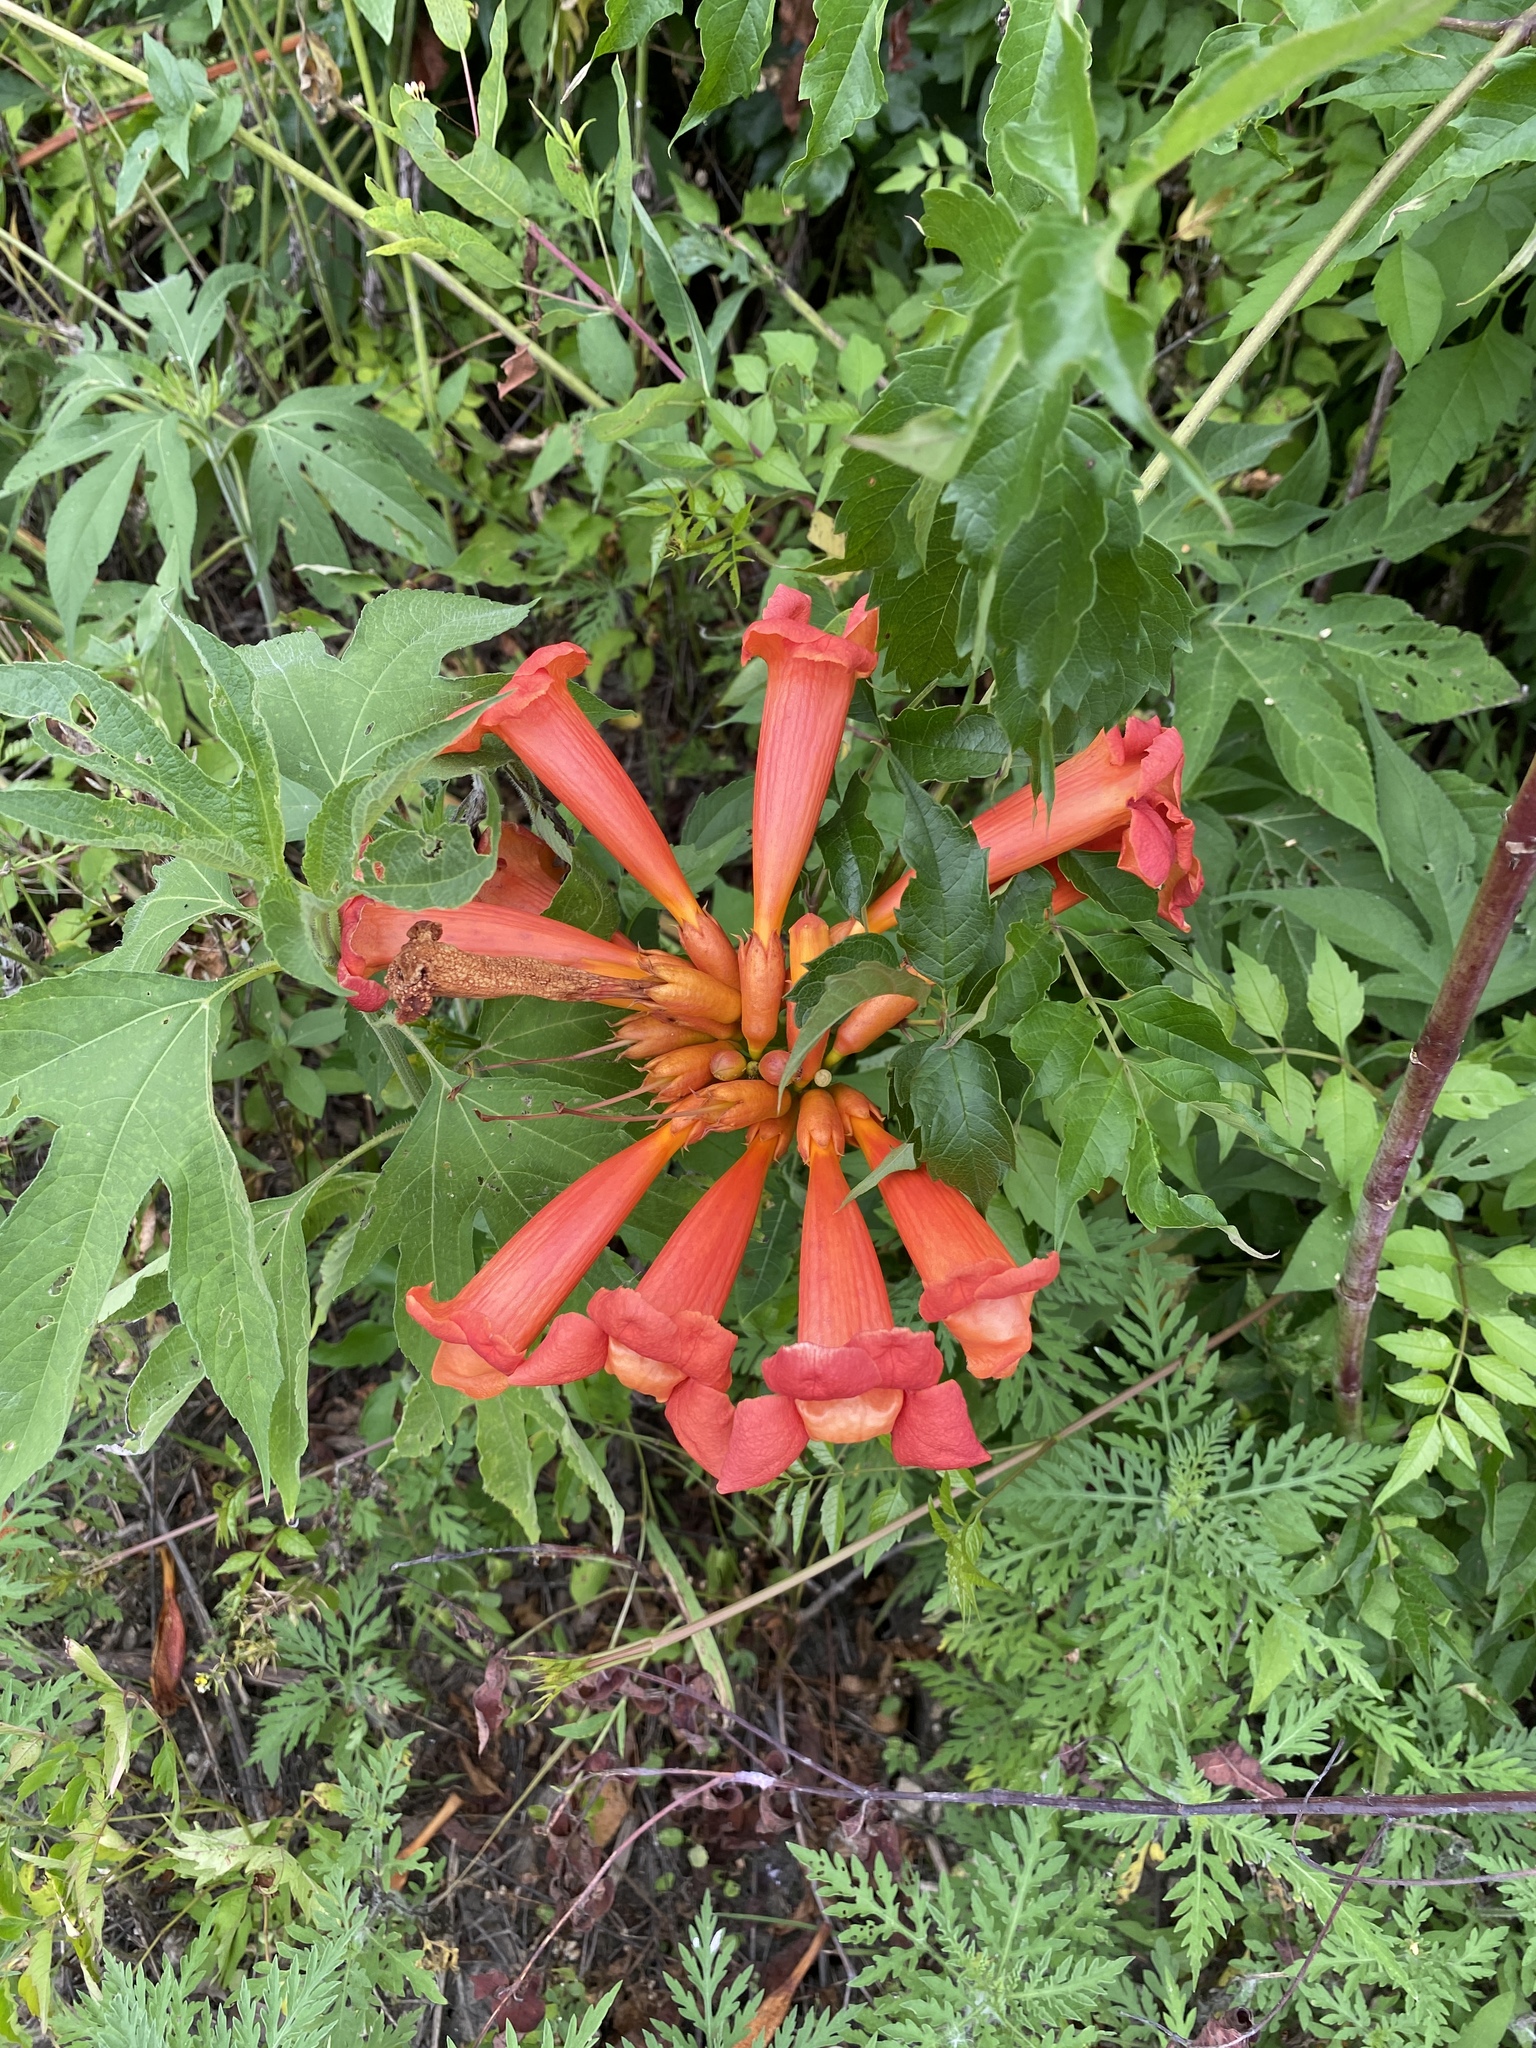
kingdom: Plantae
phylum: Tracheophyta
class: Magnoliopsida
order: Lamiales
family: Bignoniaceae
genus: Campsis
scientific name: Campsis radicans
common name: Trumpet-creeper
